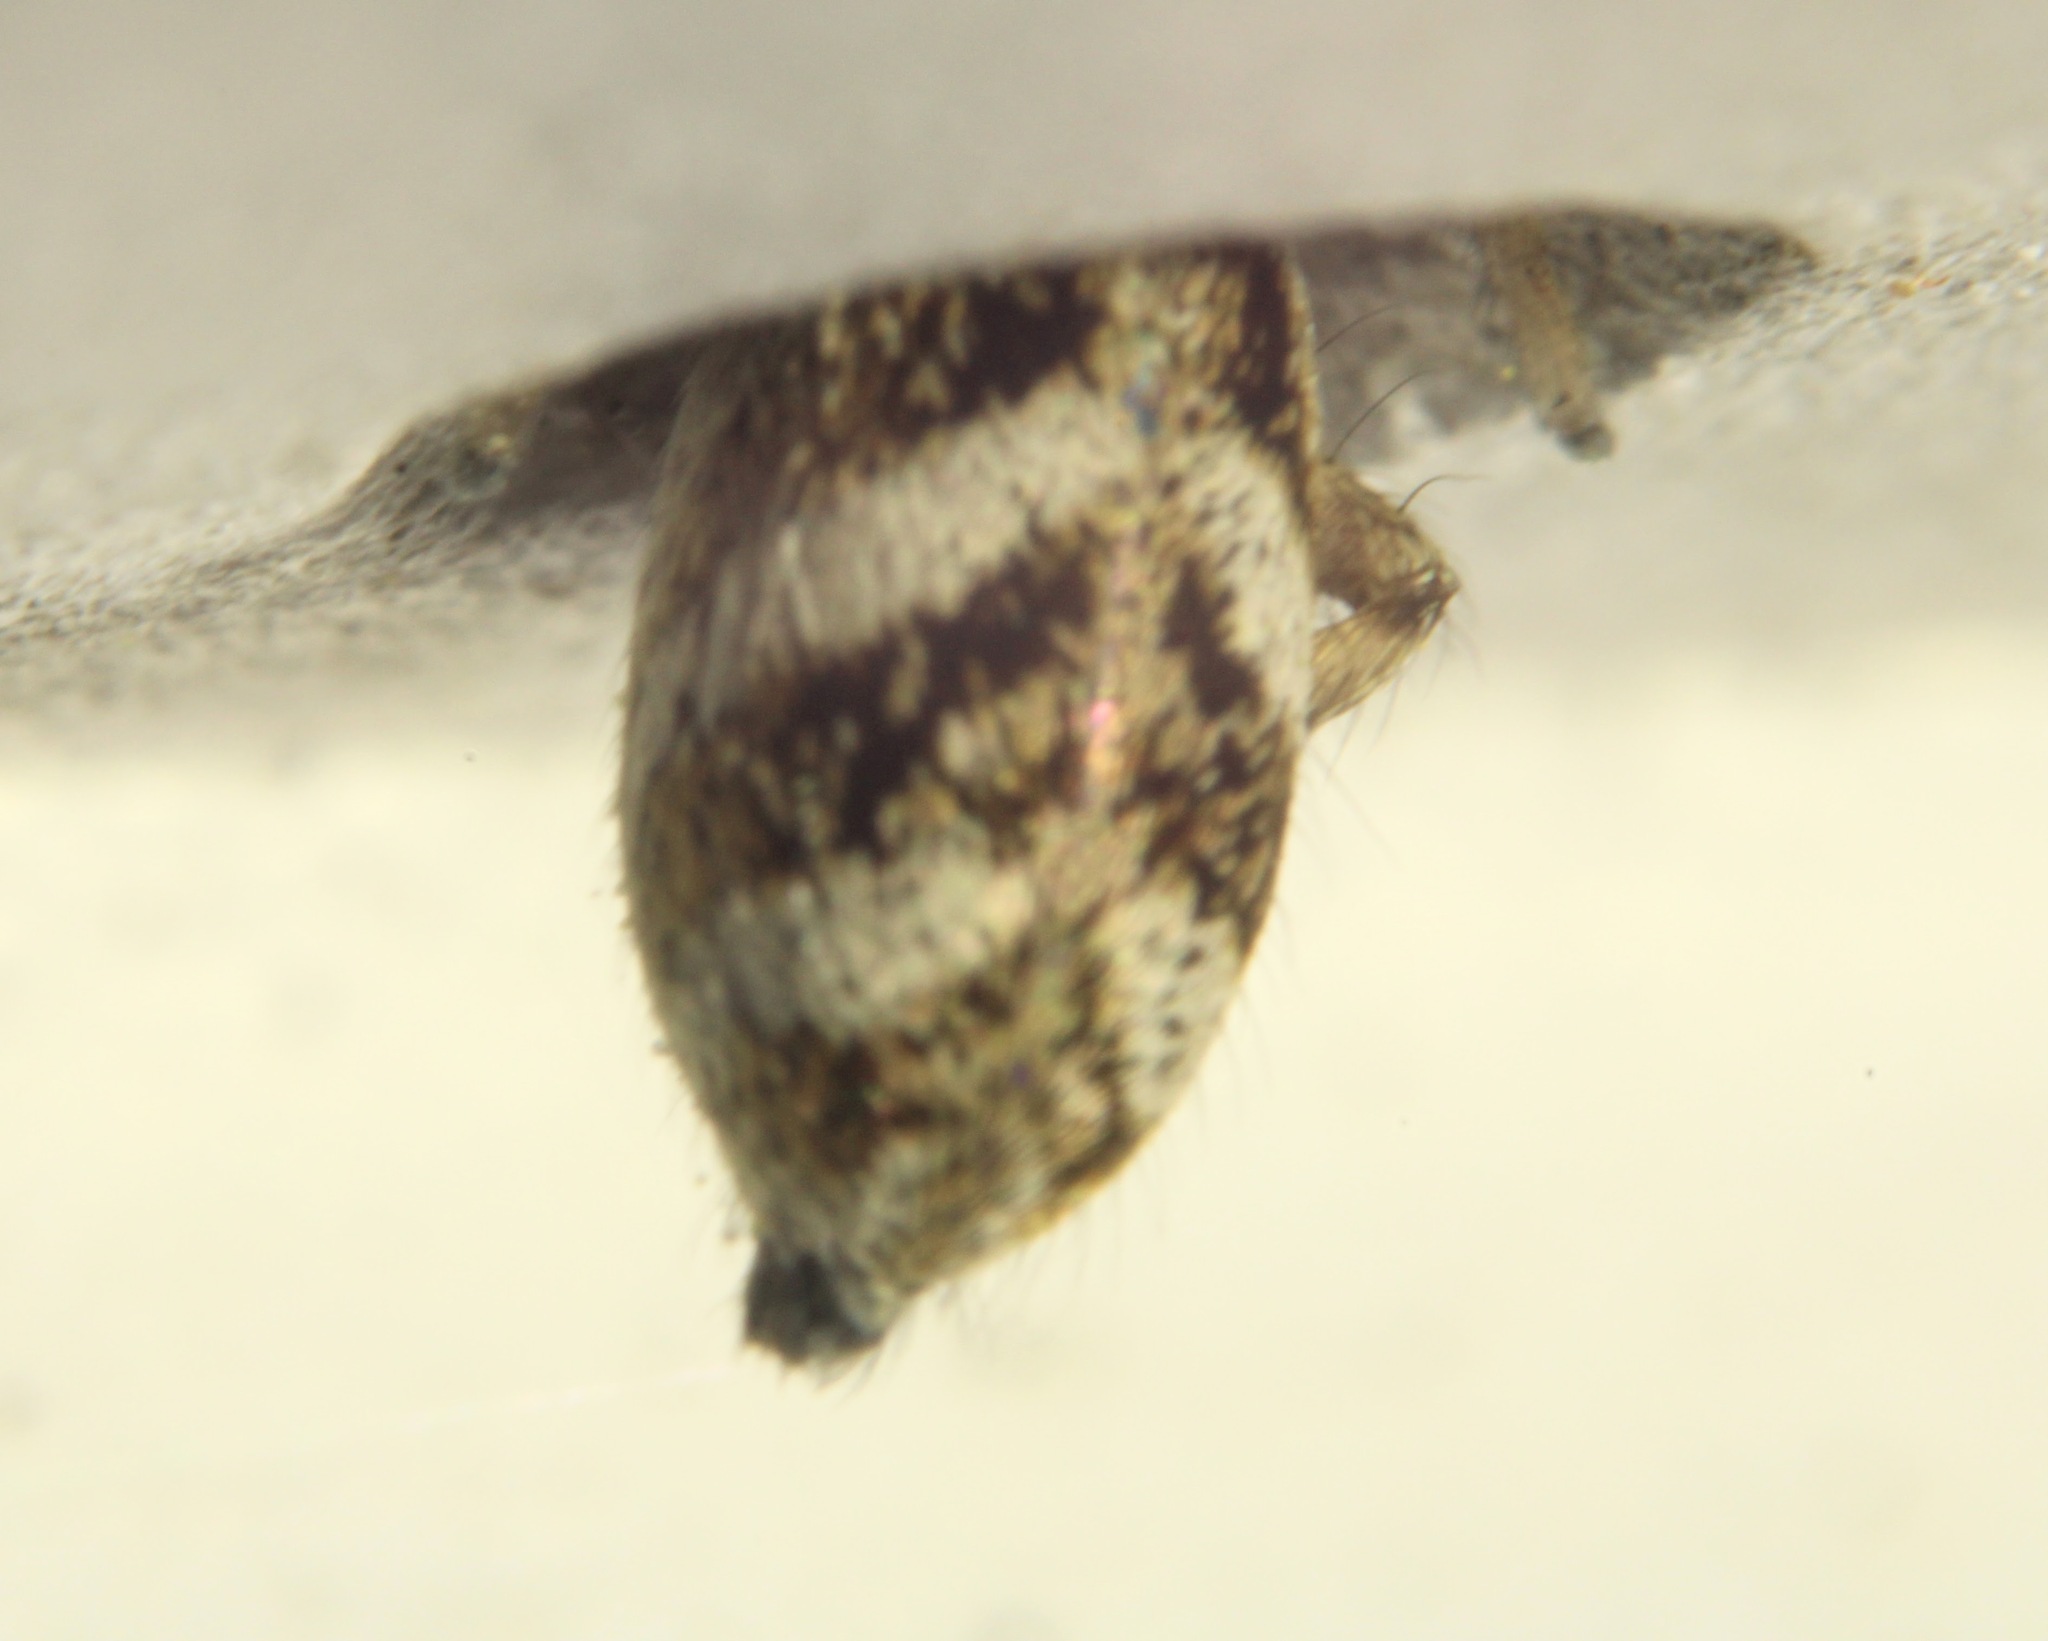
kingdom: Animalia
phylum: Arthropoda
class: Arachnida
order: Araneae
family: Salticidae
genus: Salticus
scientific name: Salticus scenicus
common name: Zebra jumper
